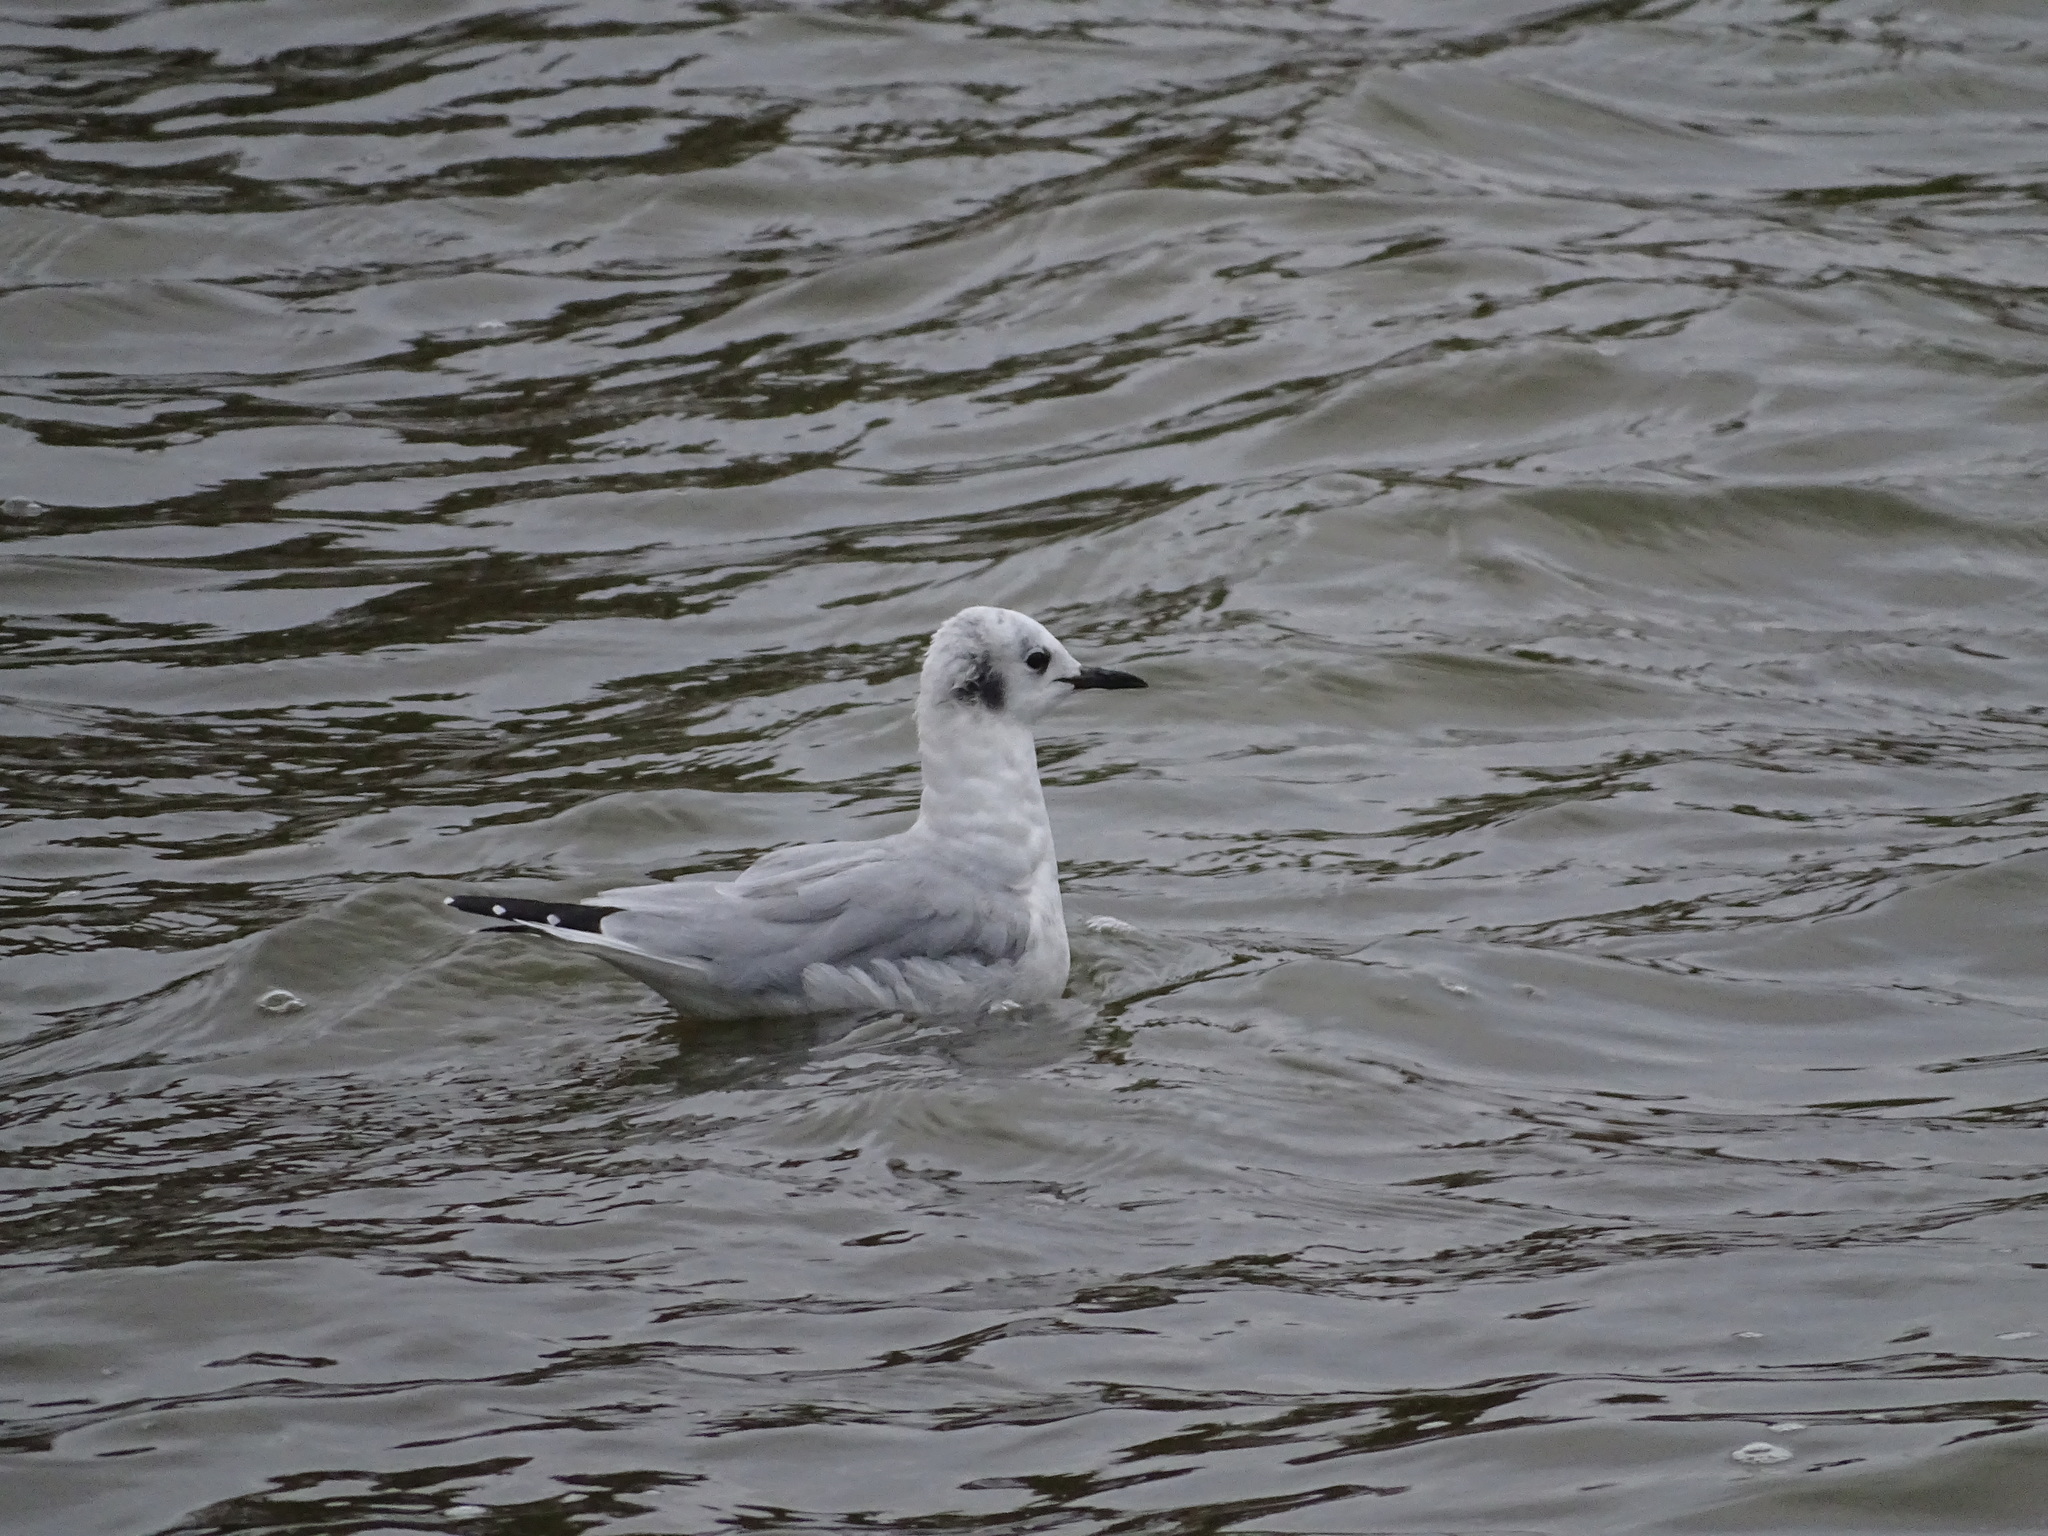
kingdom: Animalia
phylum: Chordata
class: Aves
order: Charadriiformes
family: Laridae
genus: Chroicocephalus
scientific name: Chroicocephalus philadelphia
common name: Bonaparte's gull
